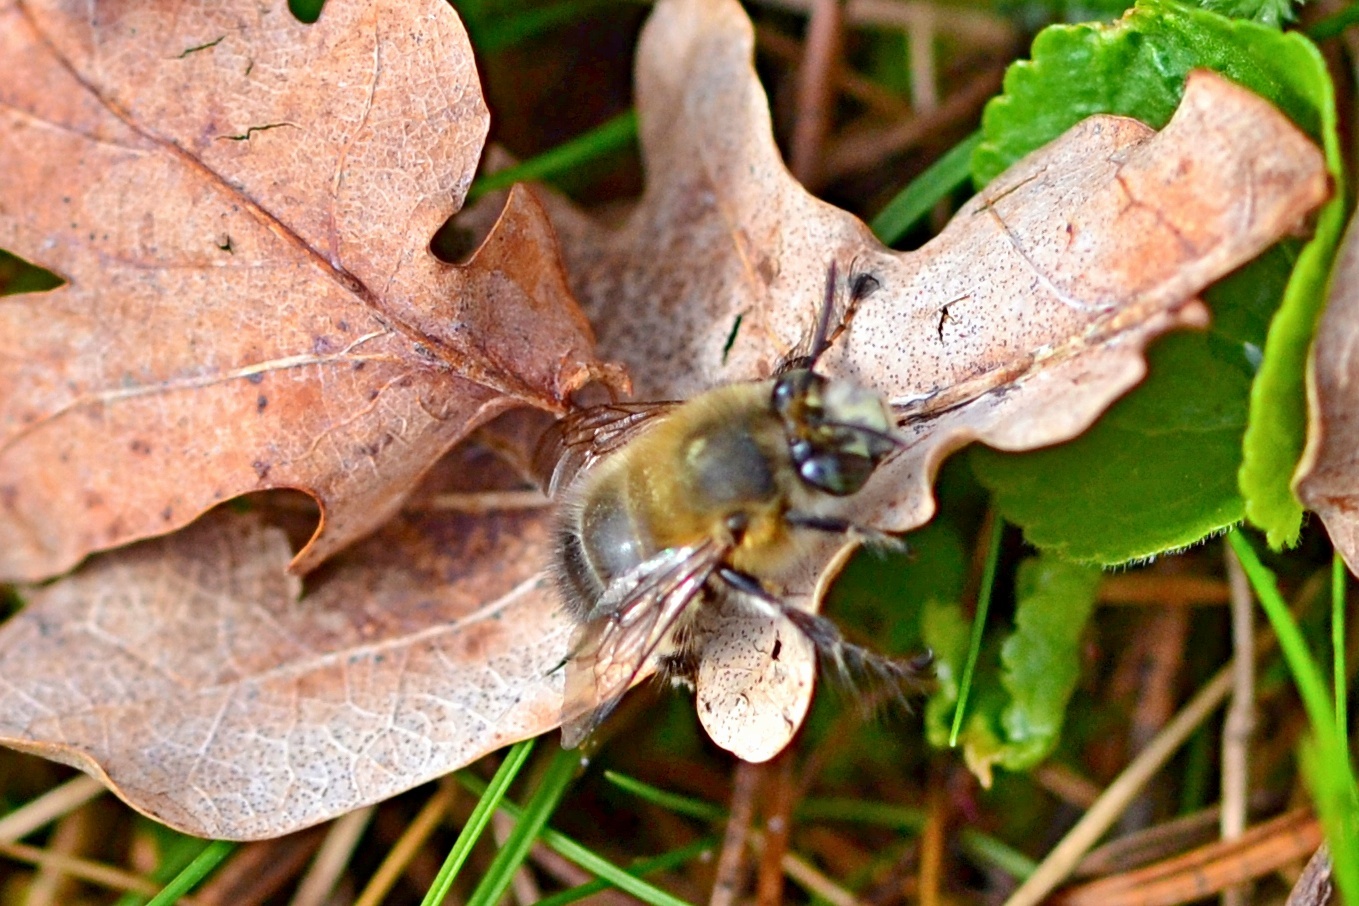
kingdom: Animalia
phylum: Arthropoda
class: Insecta
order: Hymenoptera
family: Apidae
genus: Anthophora
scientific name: Anthophora plumipes
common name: Hairy-footed flower bee
